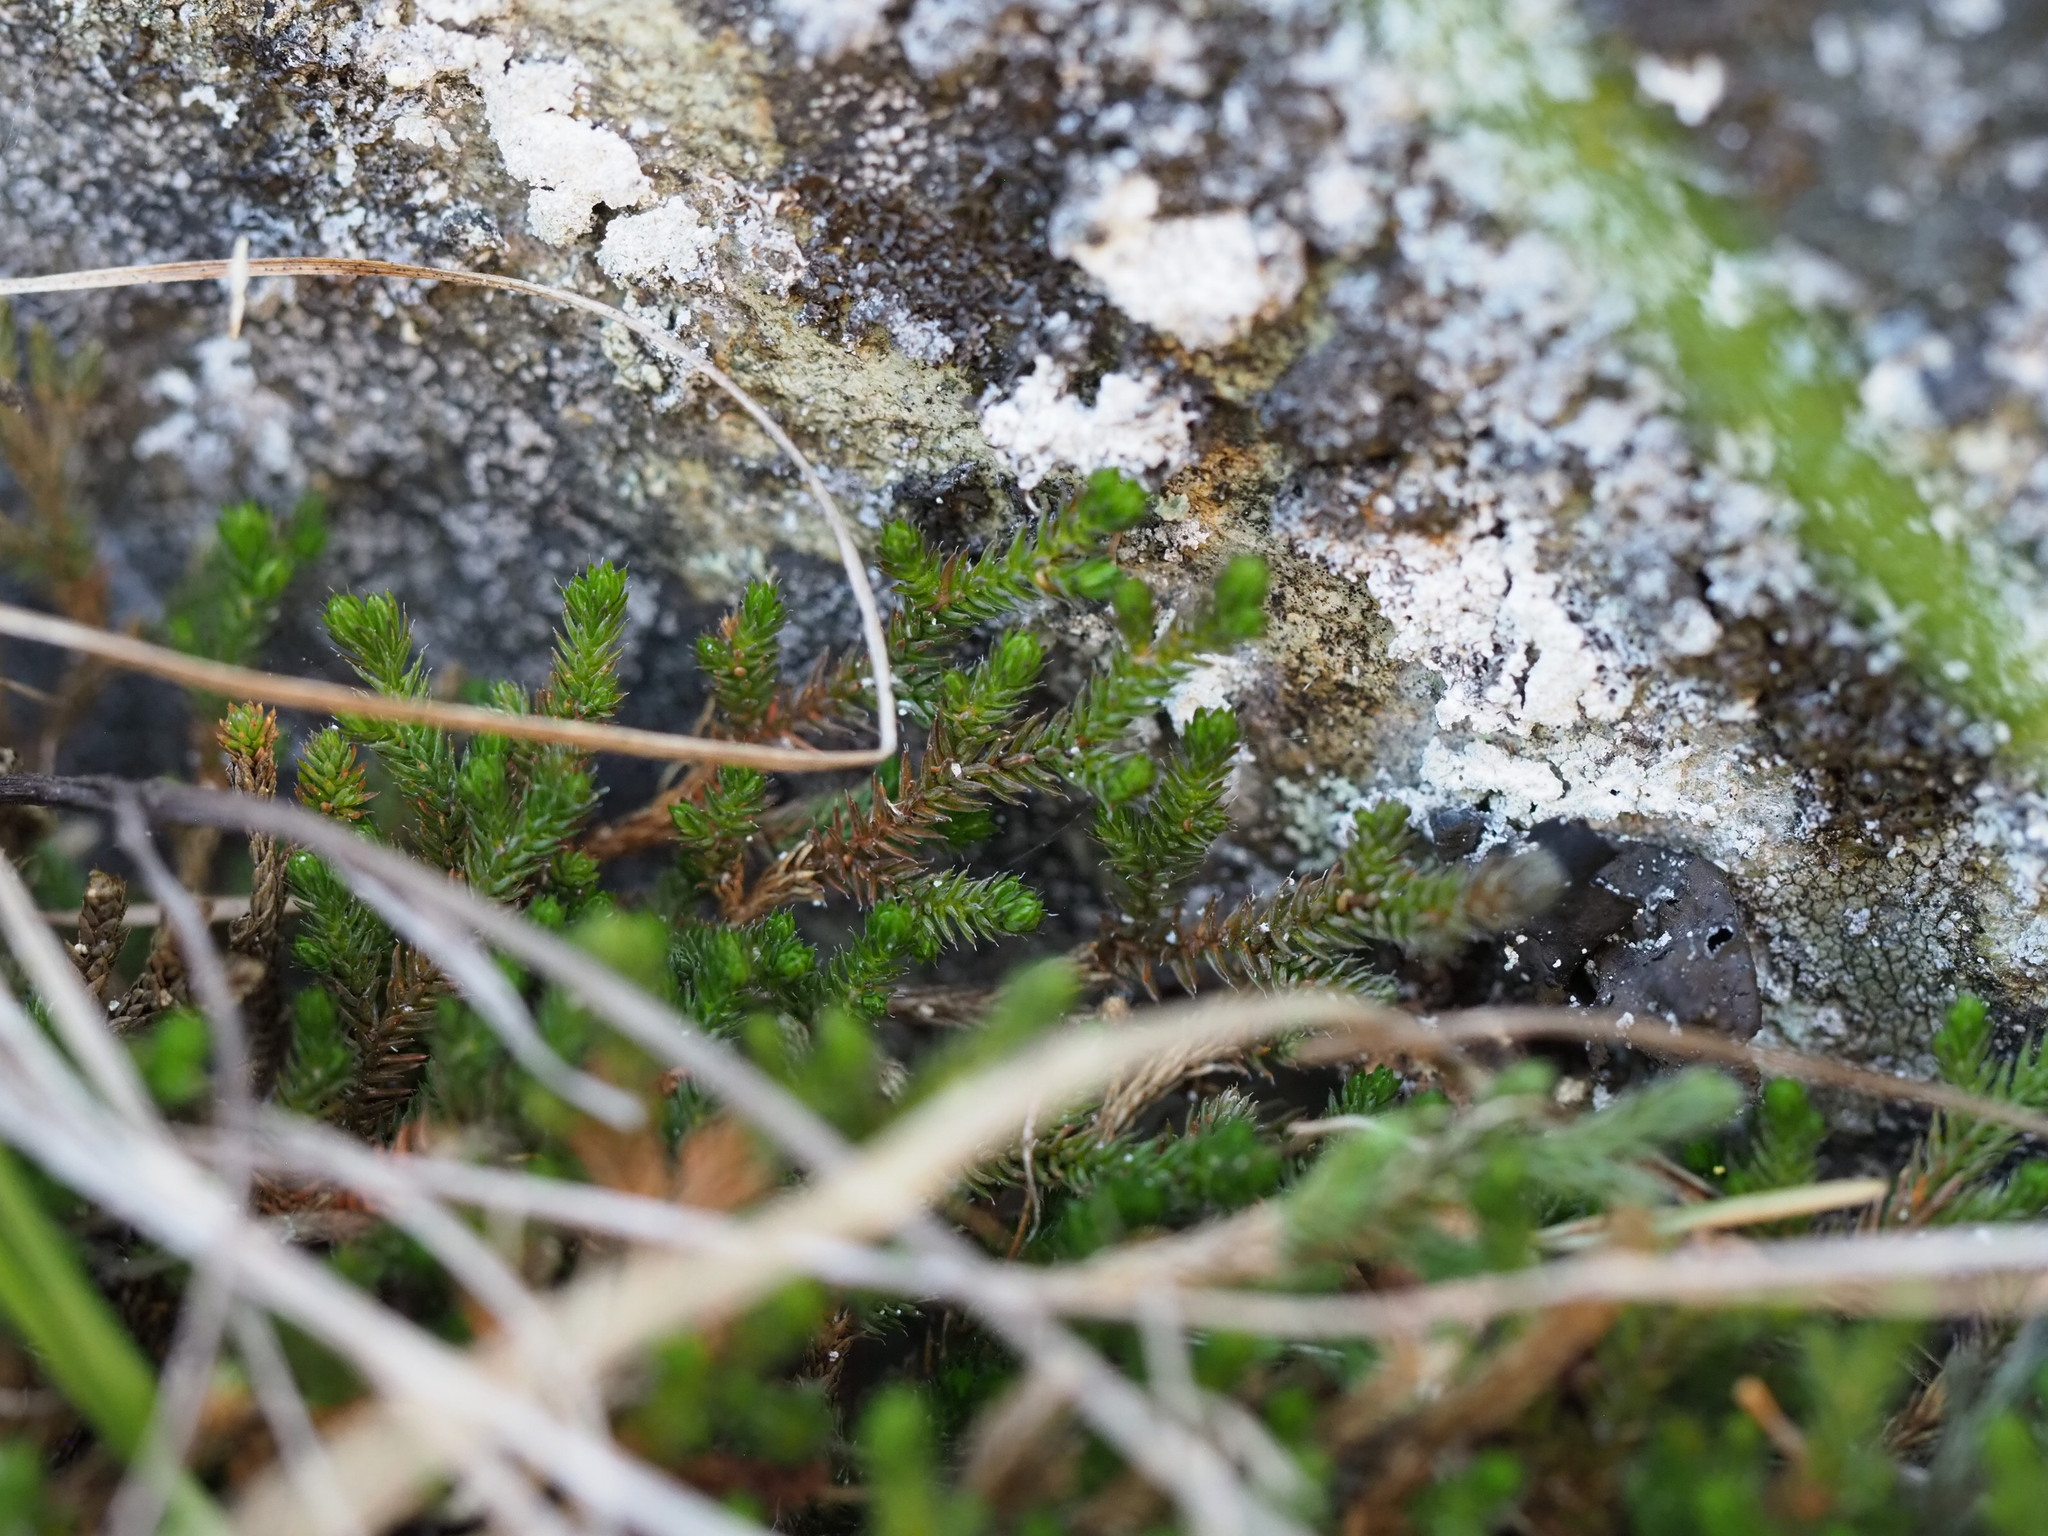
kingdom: Plantae
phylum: Tracheophyta
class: Lycopodiopsida
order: Selaginellales
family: Selaginellaceae
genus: Selaginella
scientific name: Selaginella wallacei
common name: Wallace's selaginella
